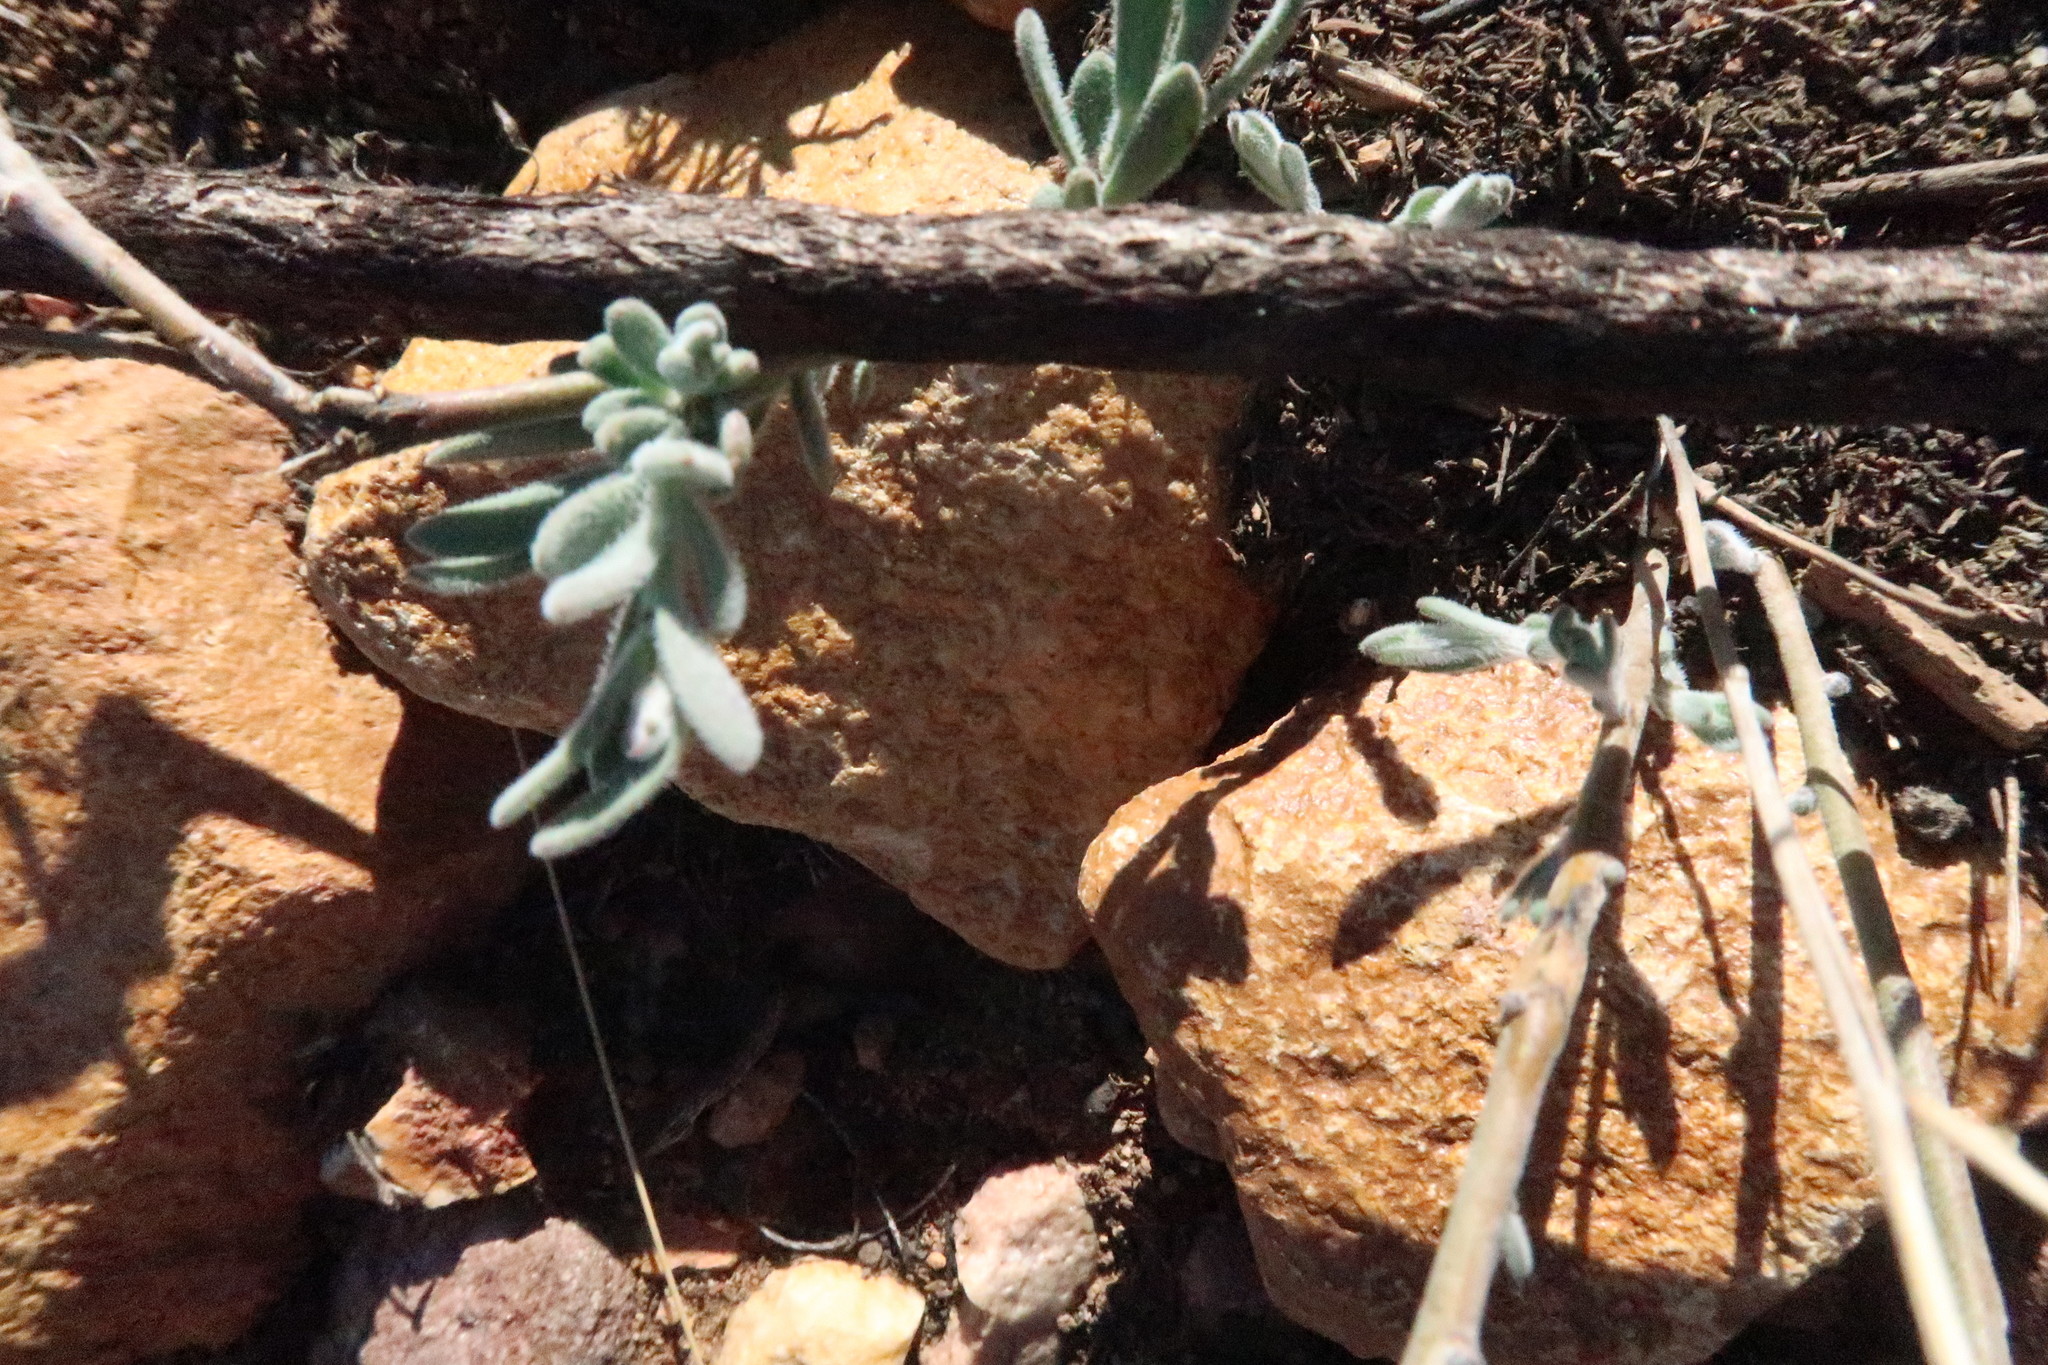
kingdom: Plantae
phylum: Tracheophyta
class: Magnoliopsida
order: Brassicales
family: Brassicaceae
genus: Heliophila
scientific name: Heliophila linearis
